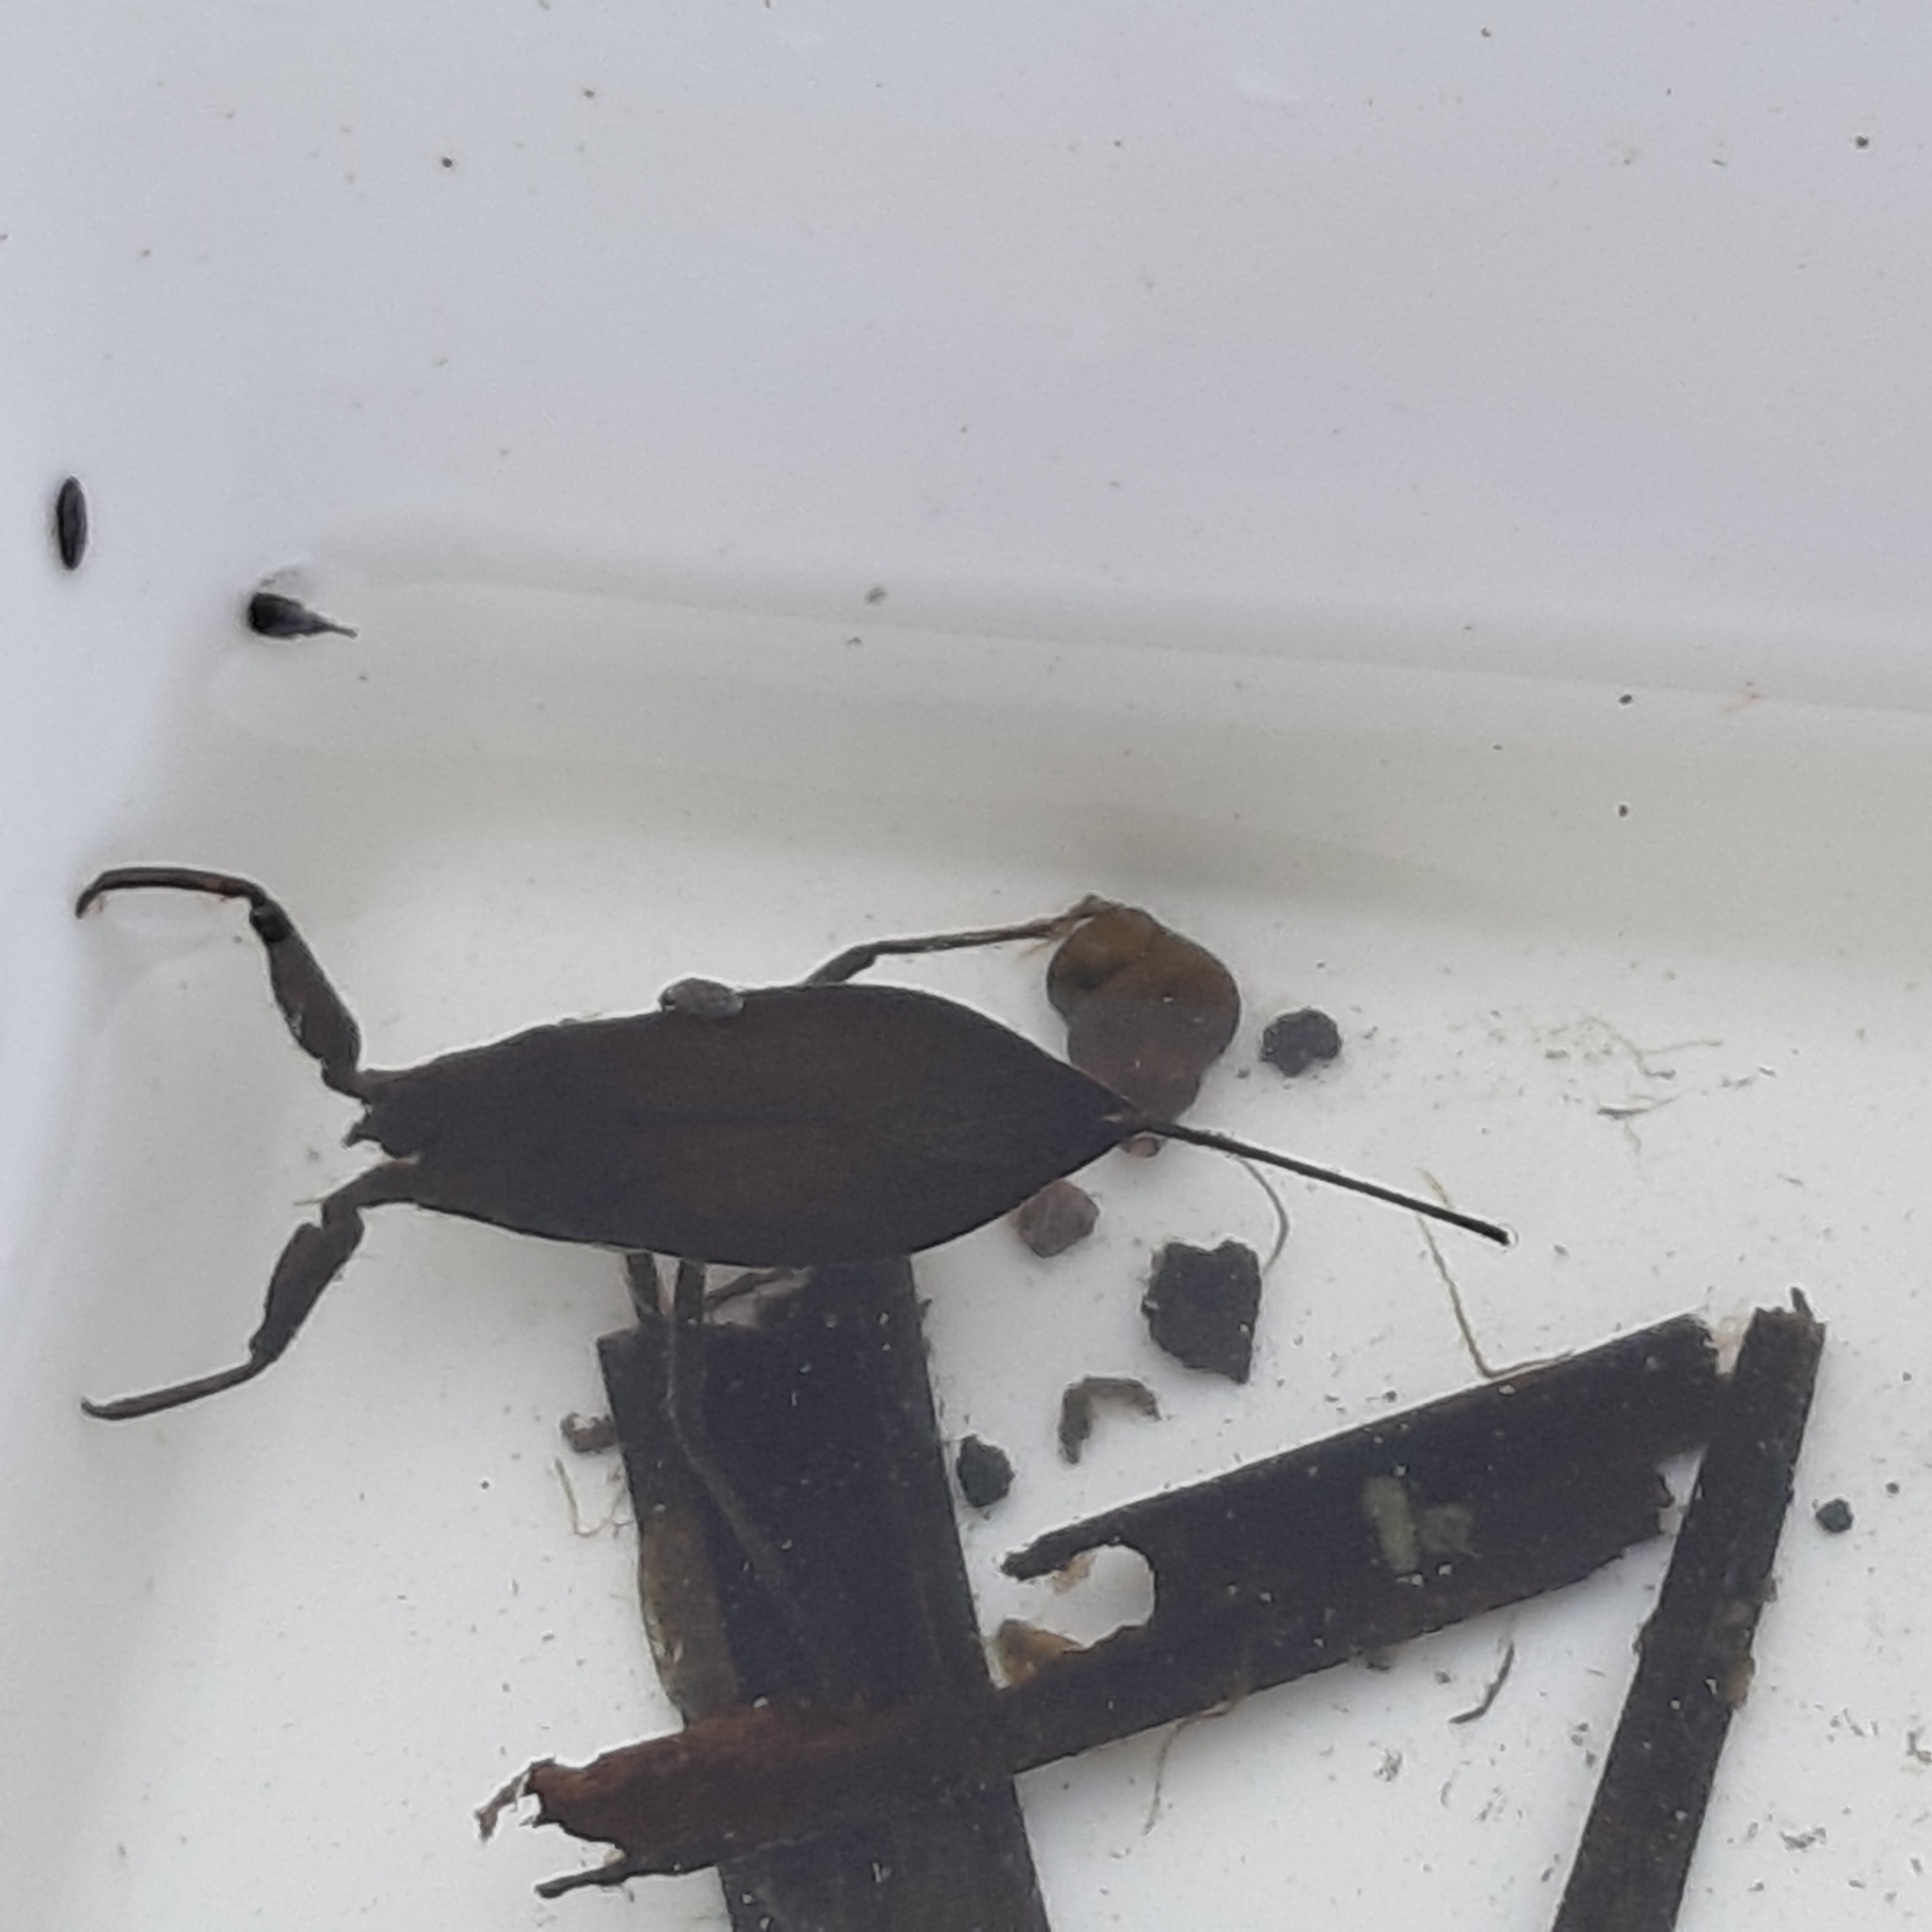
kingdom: Animalia
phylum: Arthropoda
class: Insecta
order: Hemiptera
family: Nepidae
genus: Nepa
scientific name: Nepa cinerea
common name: Water scorpion
